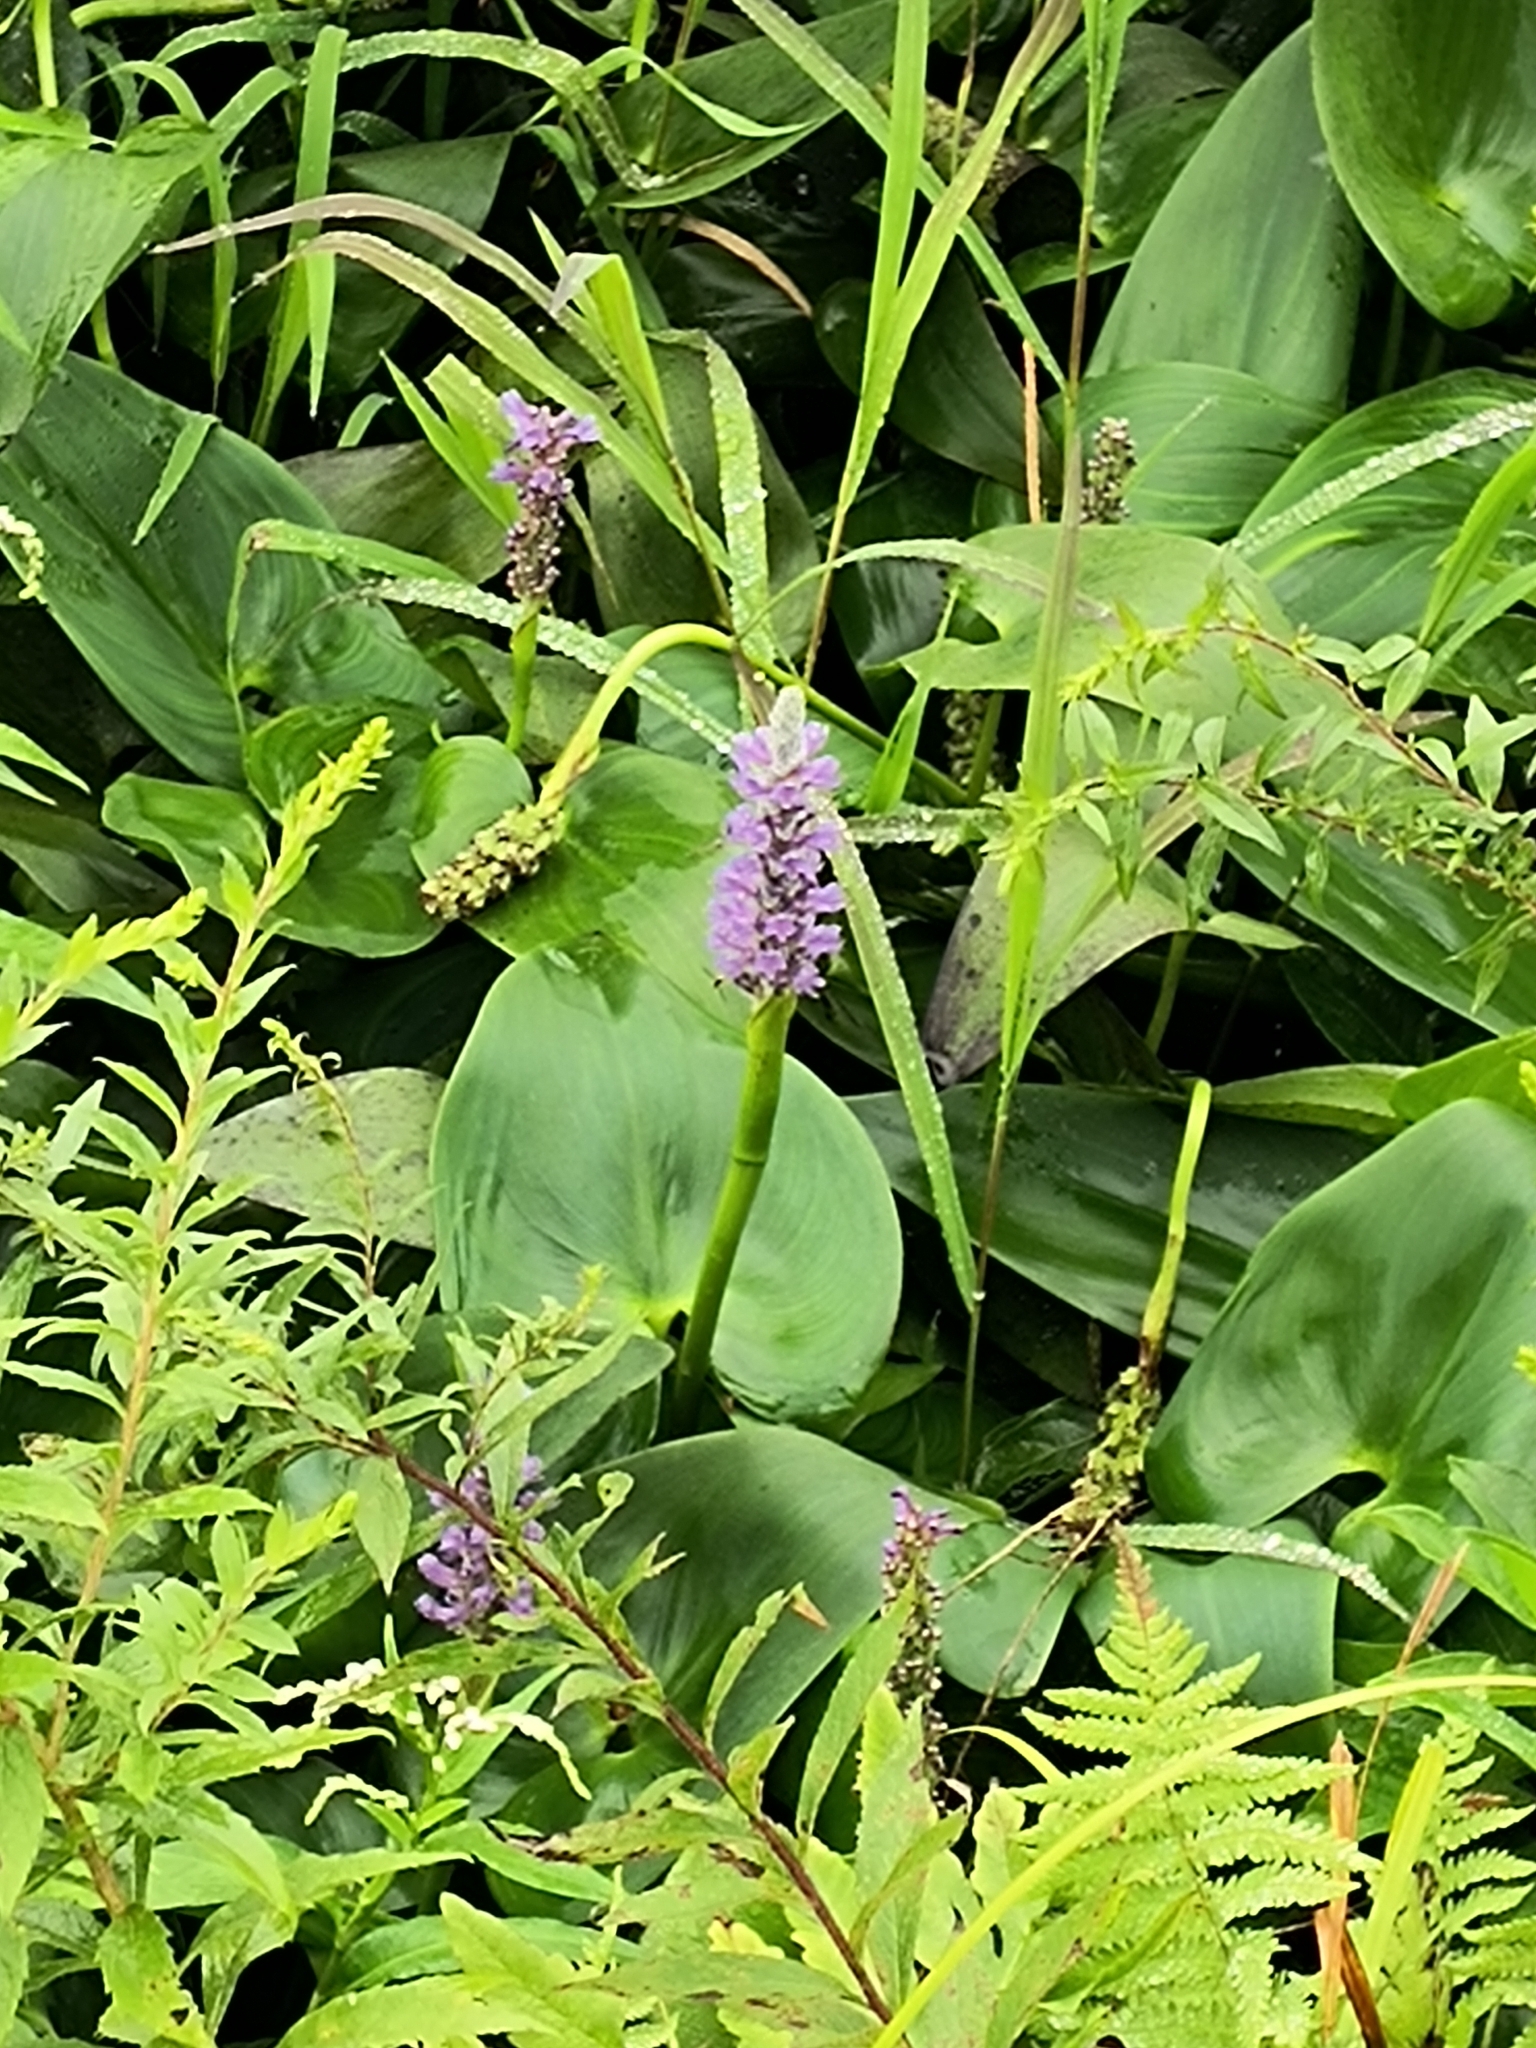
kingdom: Plantae
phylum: Tracheophyta
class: Liliopsida
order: Commelinales
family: Pontederiaceae
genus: Pontederia
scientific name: Pontederia cordata
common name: Pickerelweed
